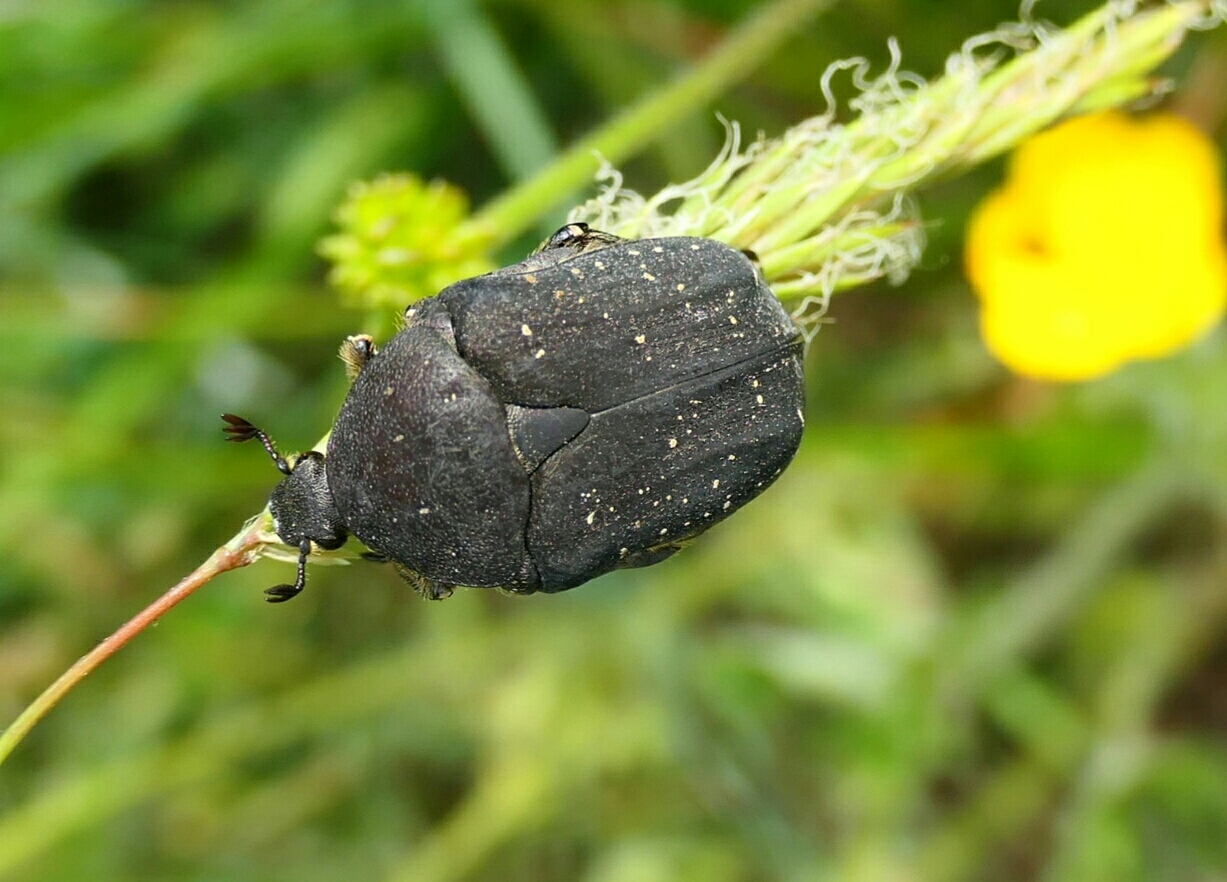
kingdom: Animalia
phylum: Arthropoda
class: Insecta
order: Coleoptera
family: Scarabaeidae
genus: Protaetia
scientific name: Protaetia morio
